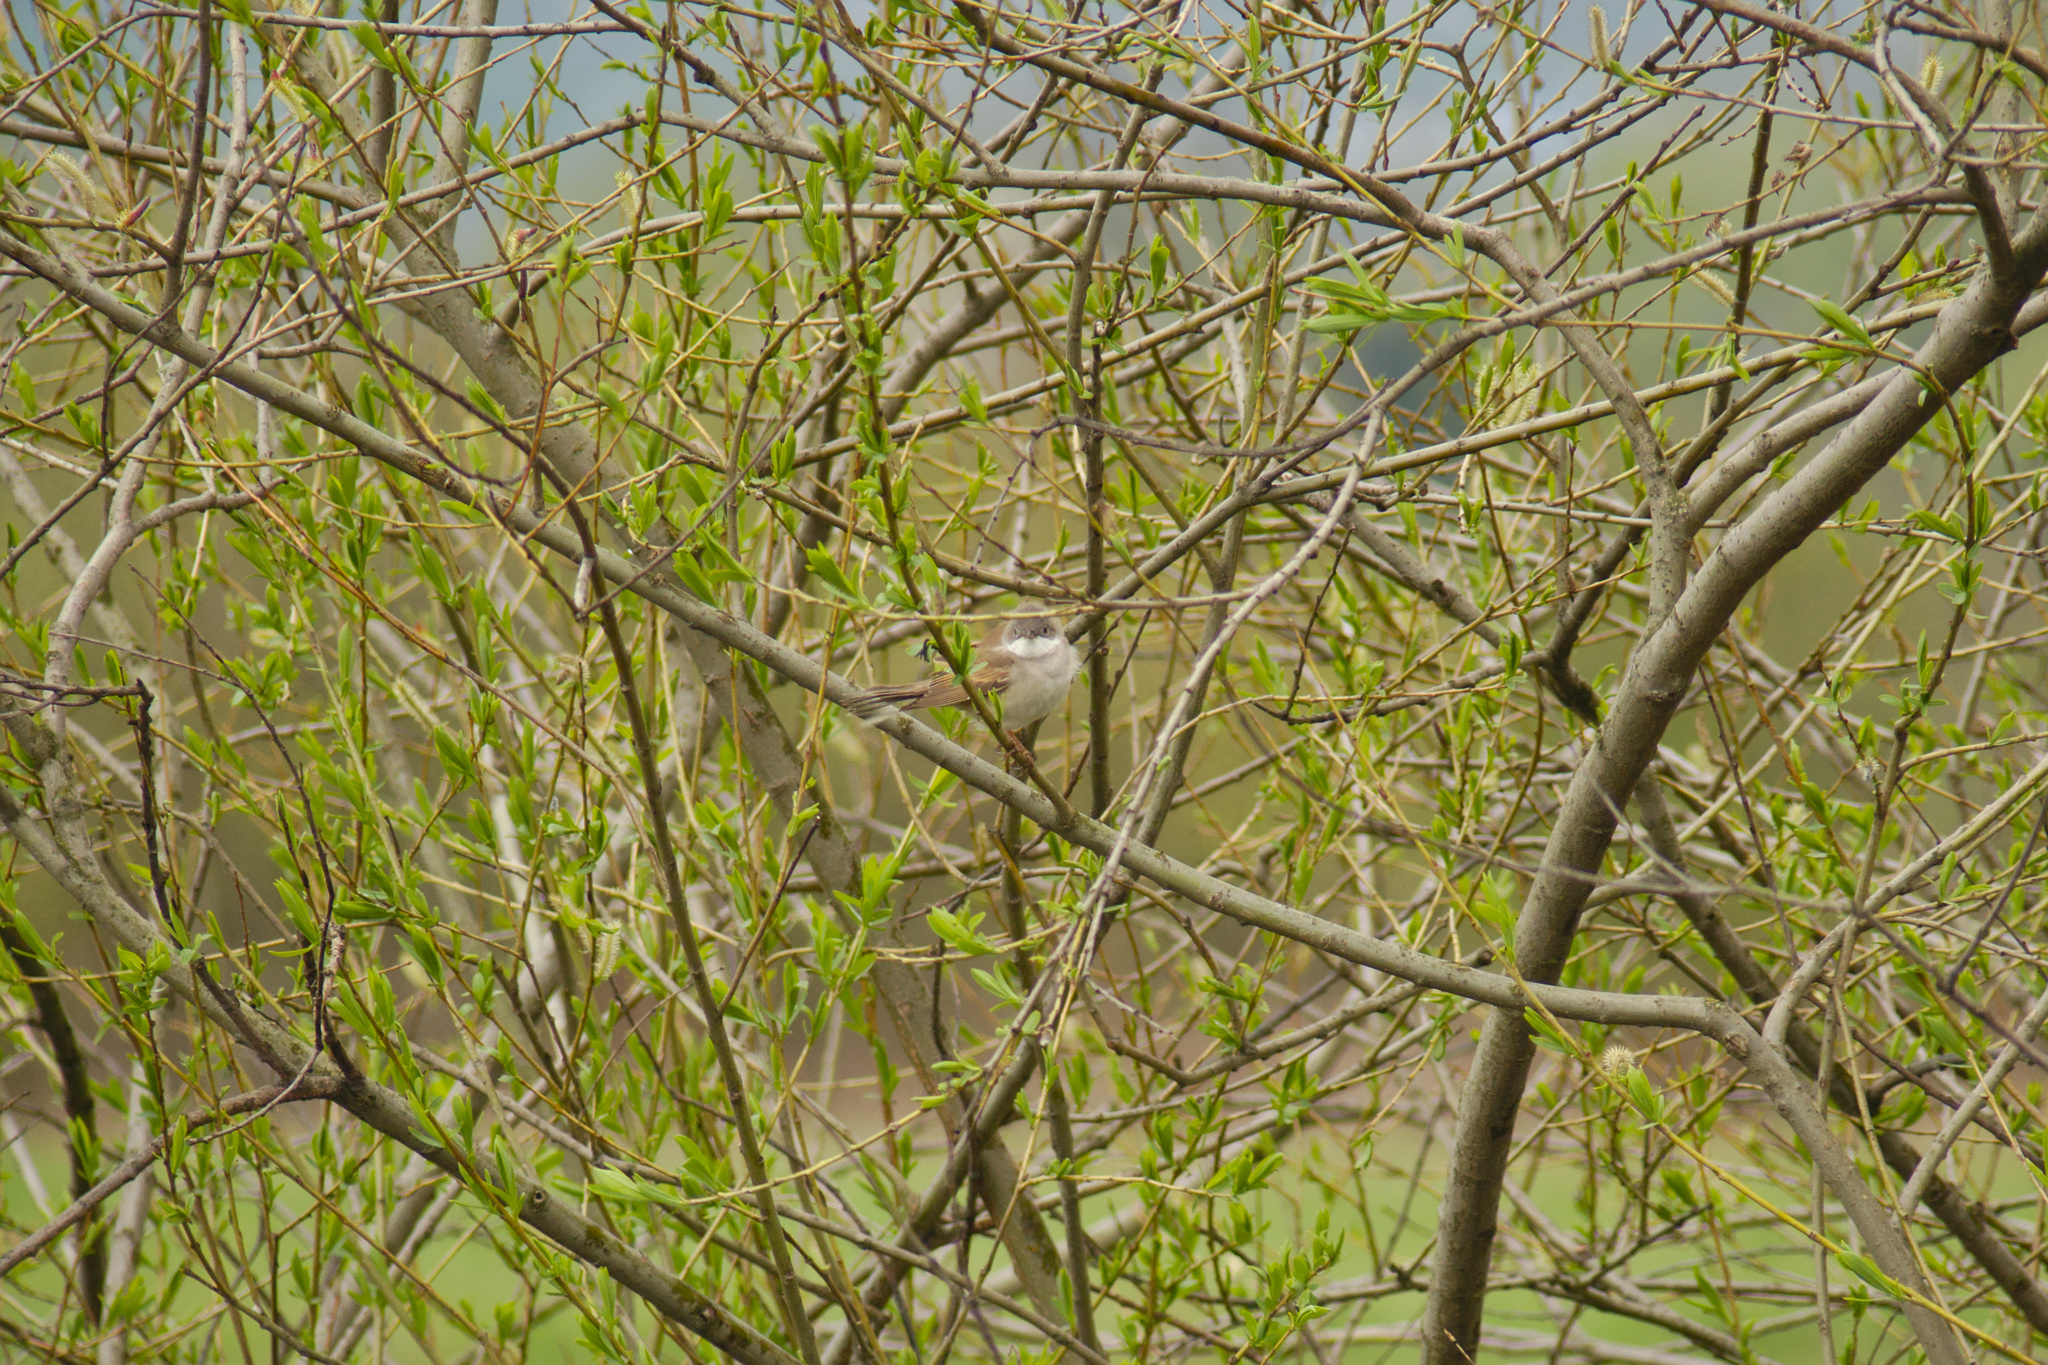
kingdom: Animalia
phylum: Chordata
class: Aves
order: Passeriformes
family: Sylviidae
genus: Sylvia
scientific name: Sylvia communis
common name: Common whitethroat
